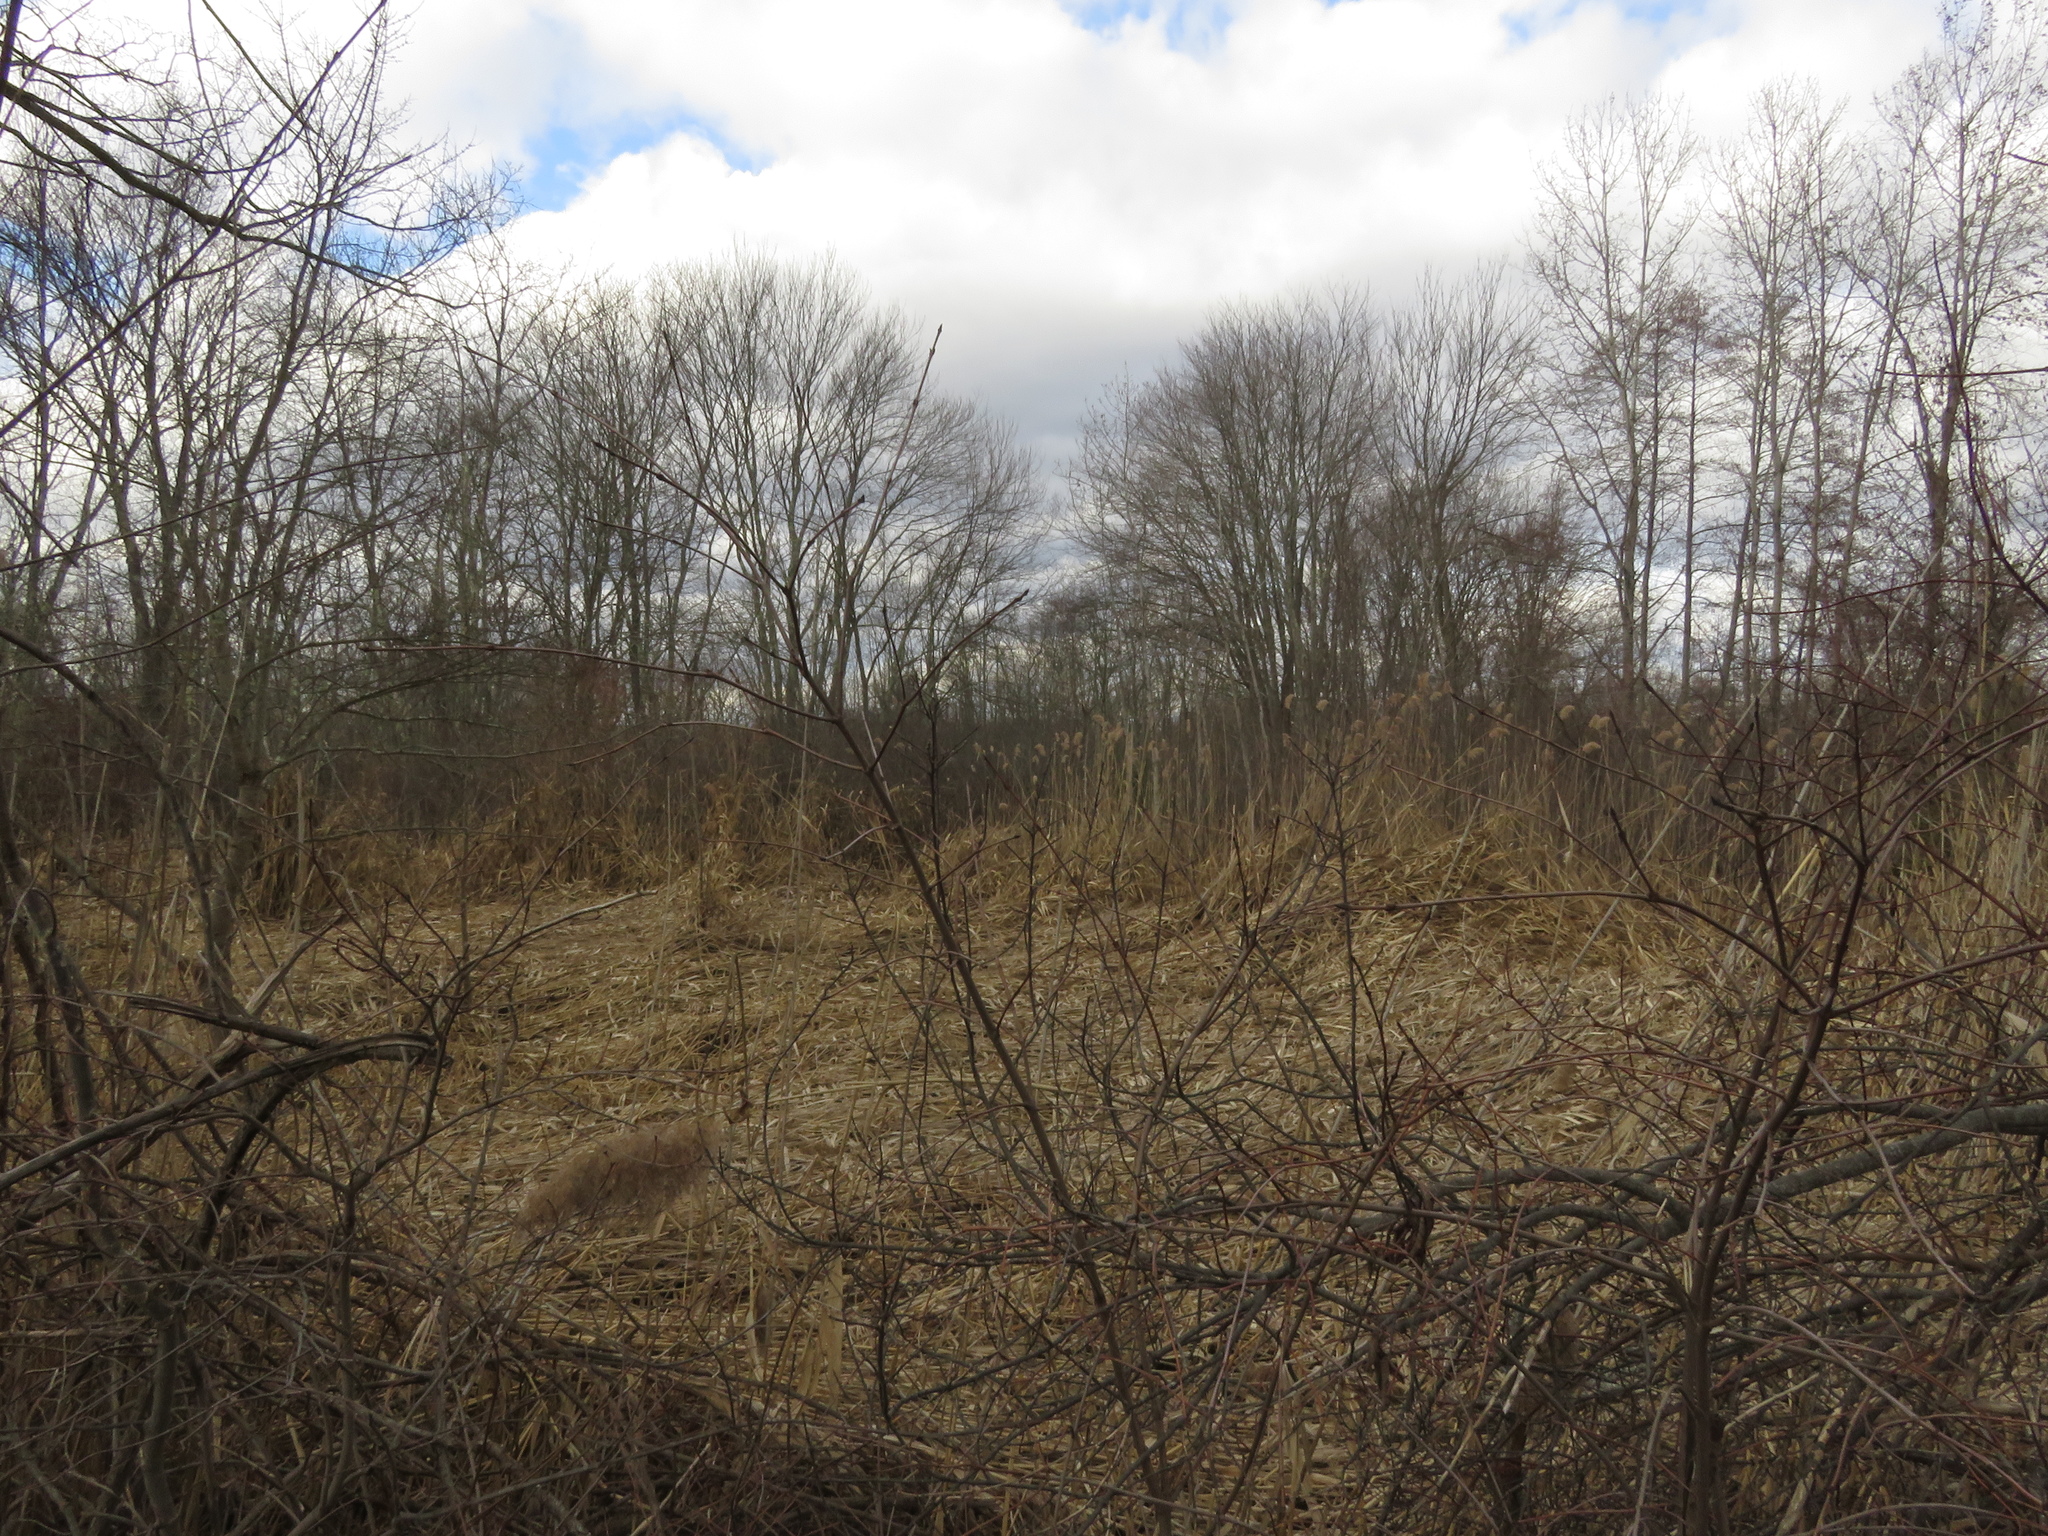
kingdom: Plantae
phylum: Tracheophyta
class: Liliopsida
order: Poales
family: Poaceae
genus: Phragmites
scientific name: Phragmites australis
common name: Common reed
